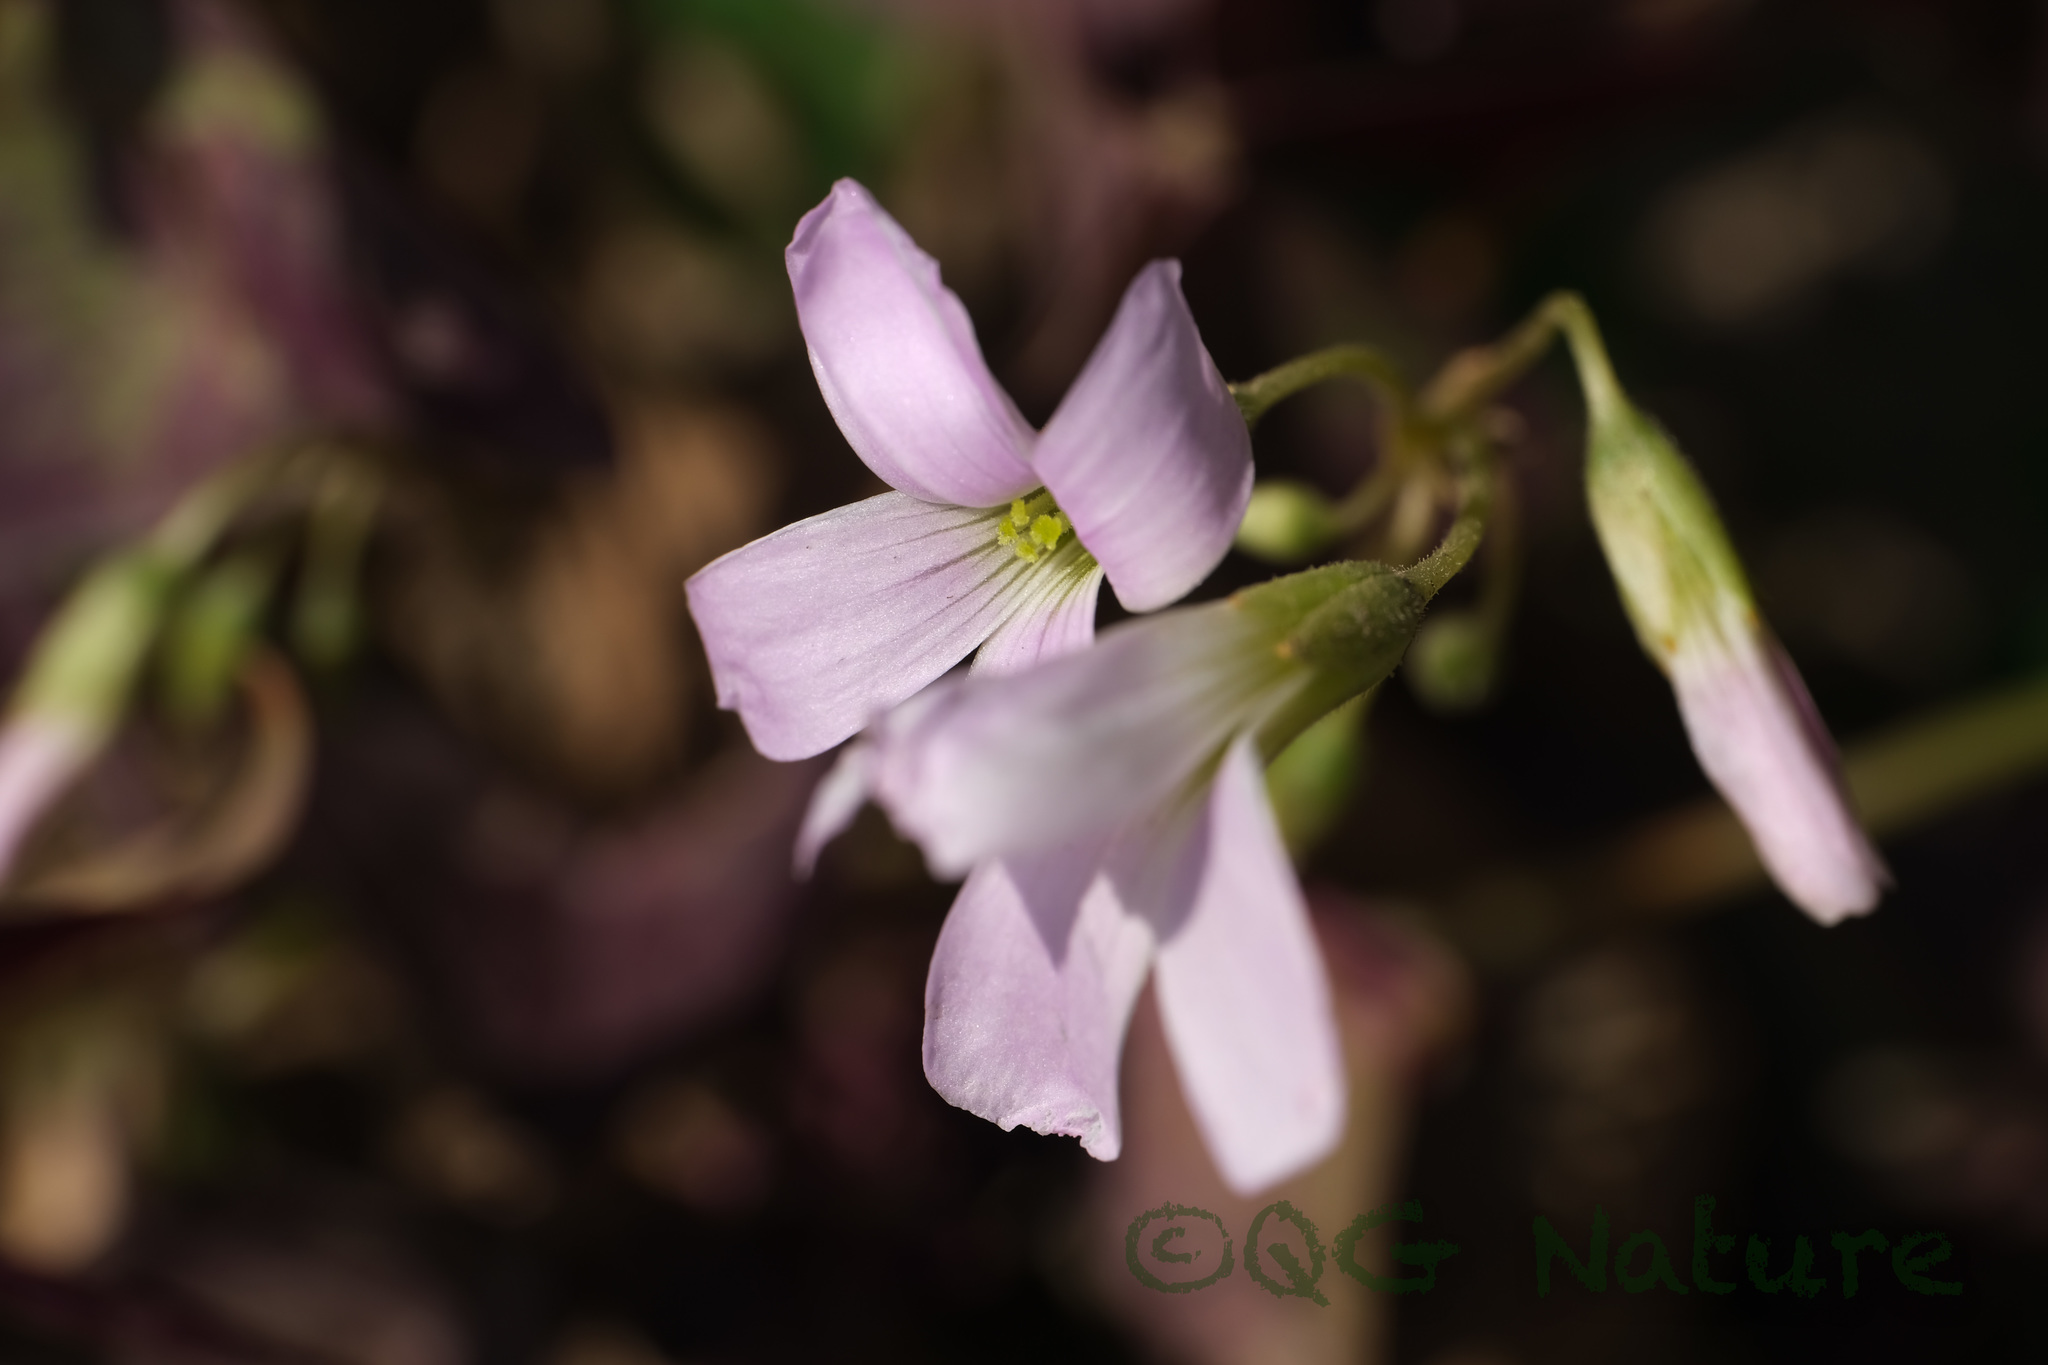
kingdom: Plantae
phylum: Tracheophyta
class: Magnoliopsida
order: Oxalidales
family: Oxalidaceae
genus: Oxalis
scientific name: Oxalis triangularis
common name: Wood sorrel
